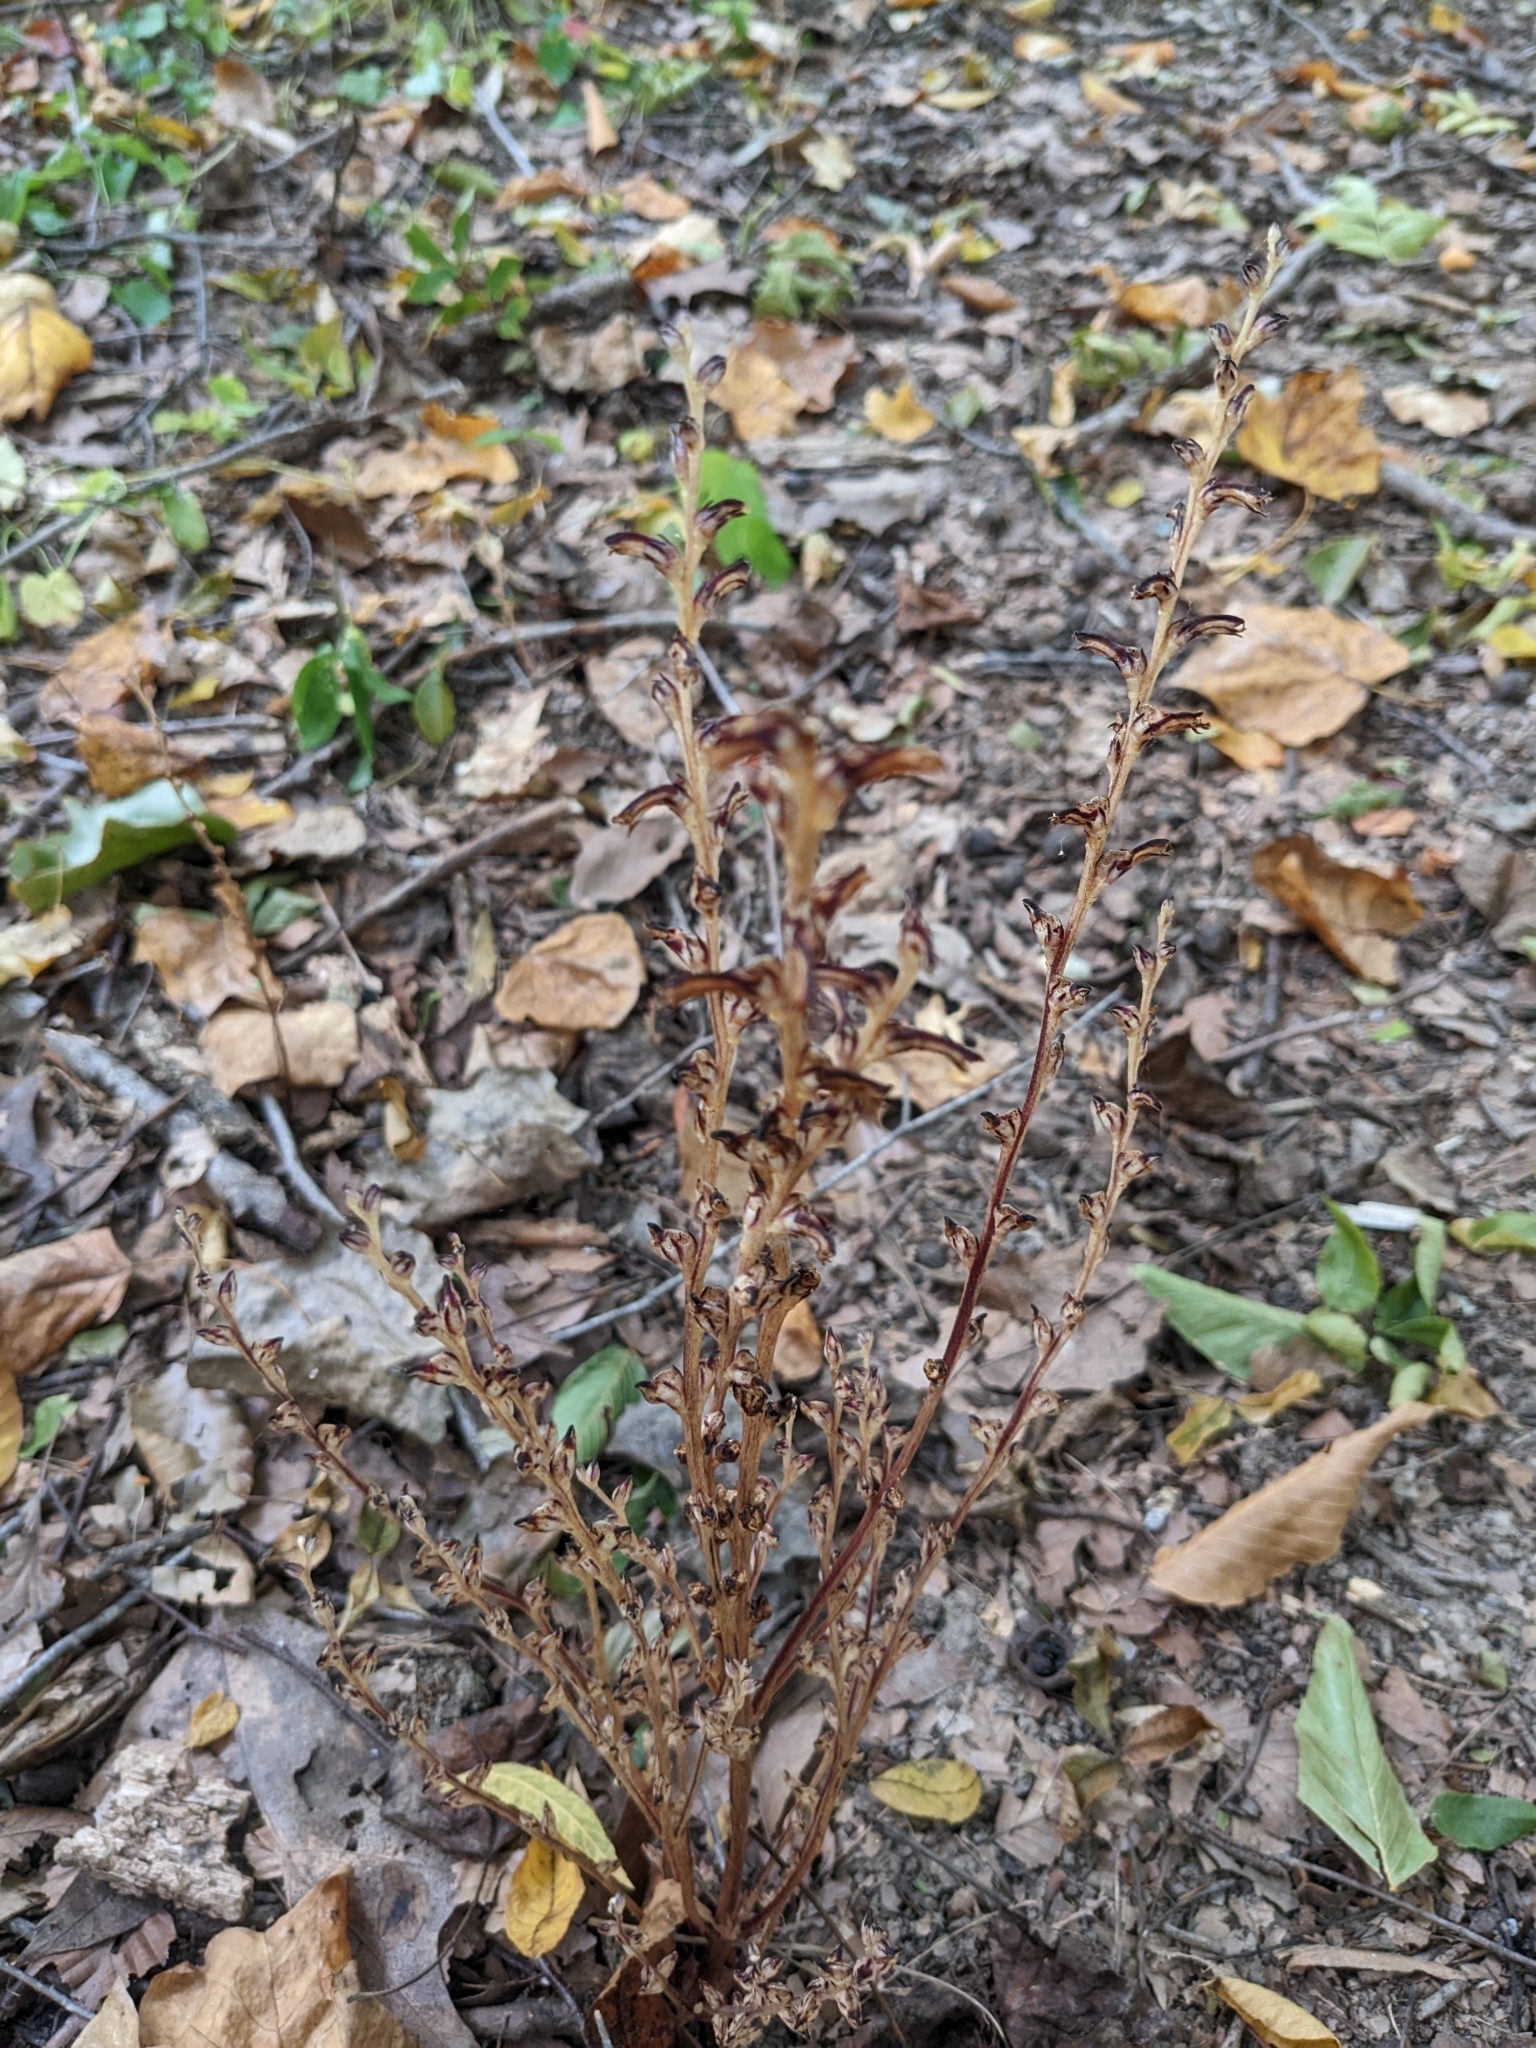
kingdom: Plantae
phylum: Tracheophyta
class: Magnoliopsida
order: Lamiales
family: Orobanchaceae
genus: Epifagus
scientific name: Epifagus virginiana
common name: Beechdrops
